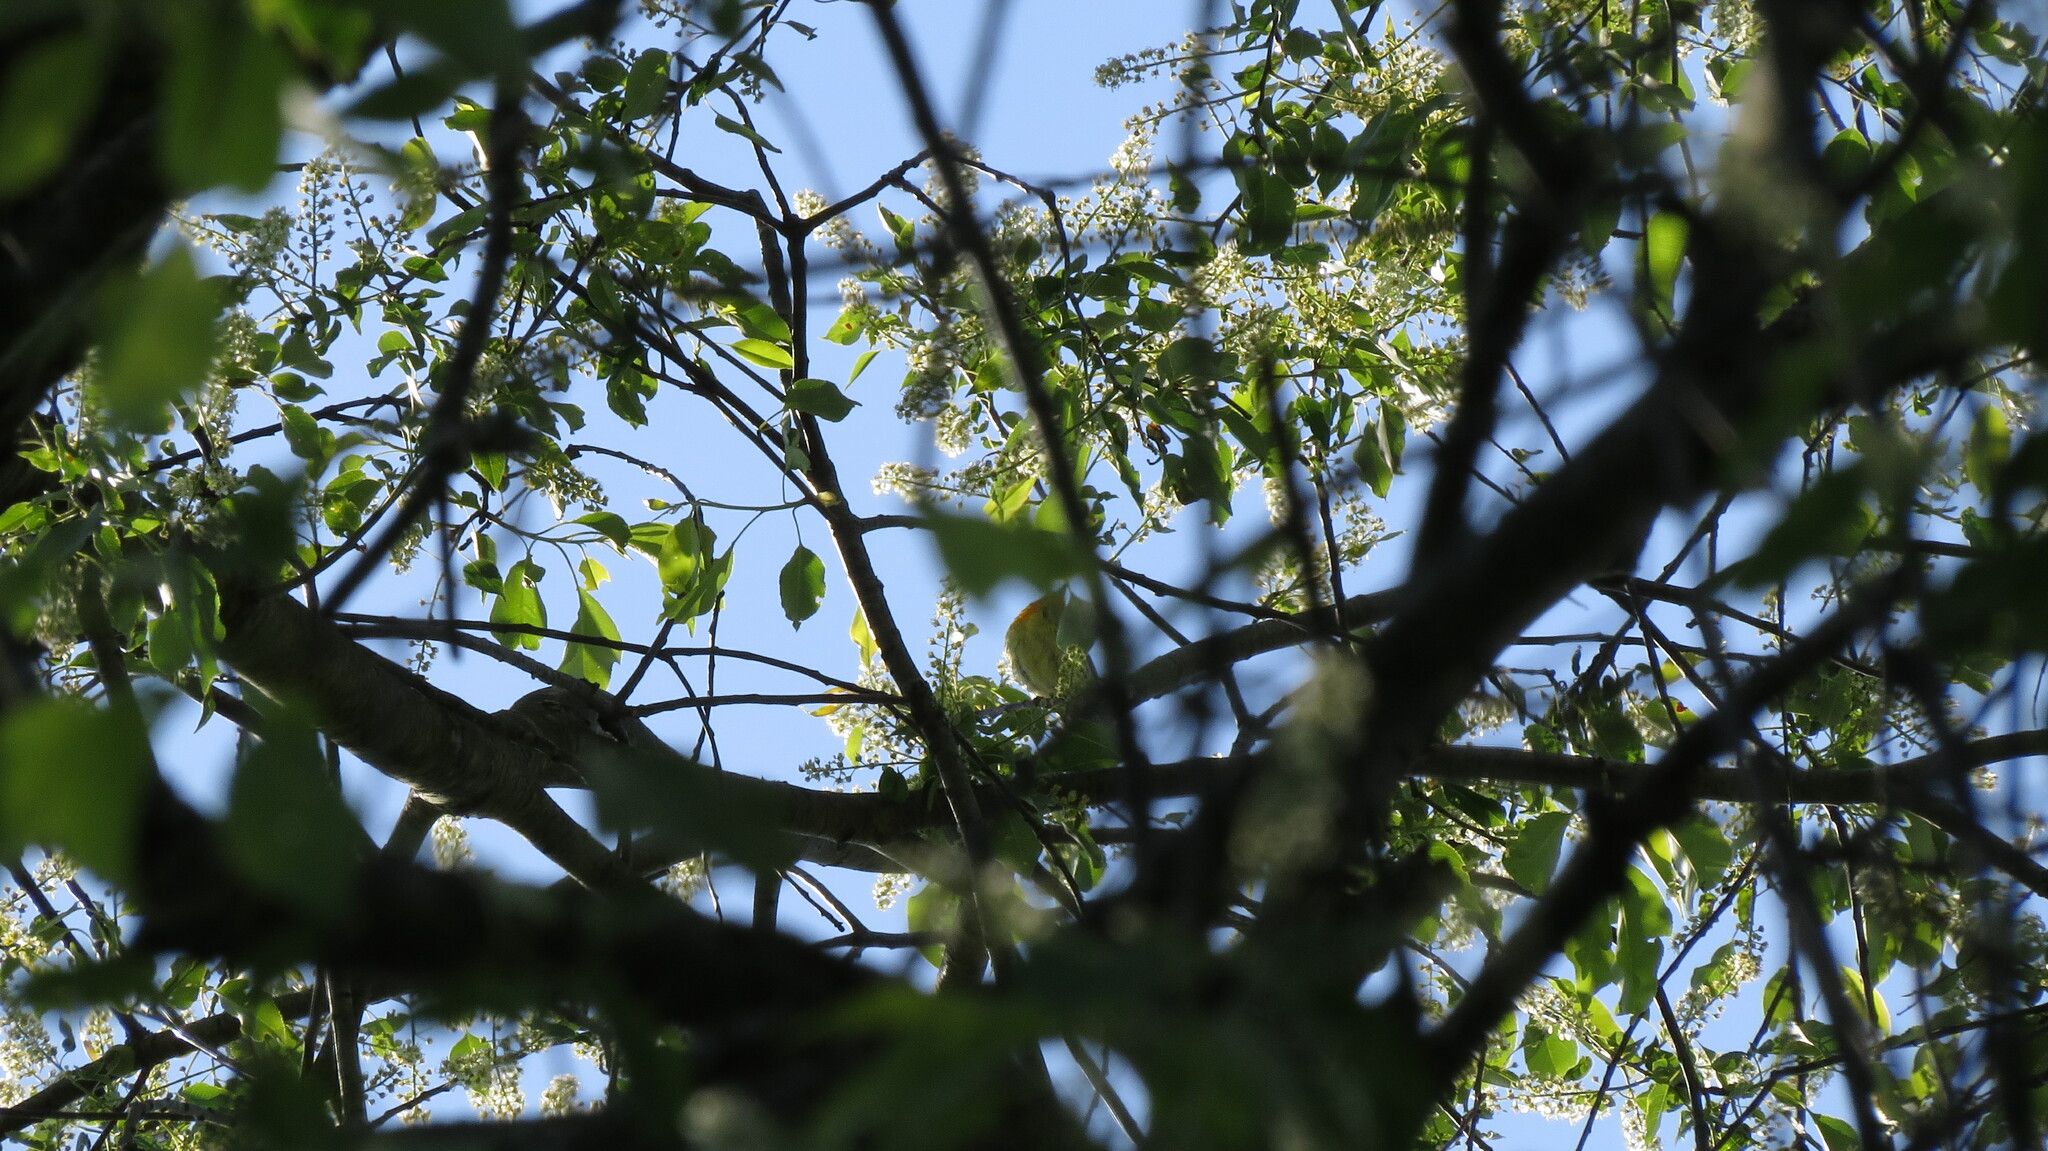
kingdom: Animalia
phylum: Chordata
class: Aves
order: Passeriformes
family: Parulidae
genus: Setophaga
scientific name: Setophaga fusca
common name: Blackburnian warbler
